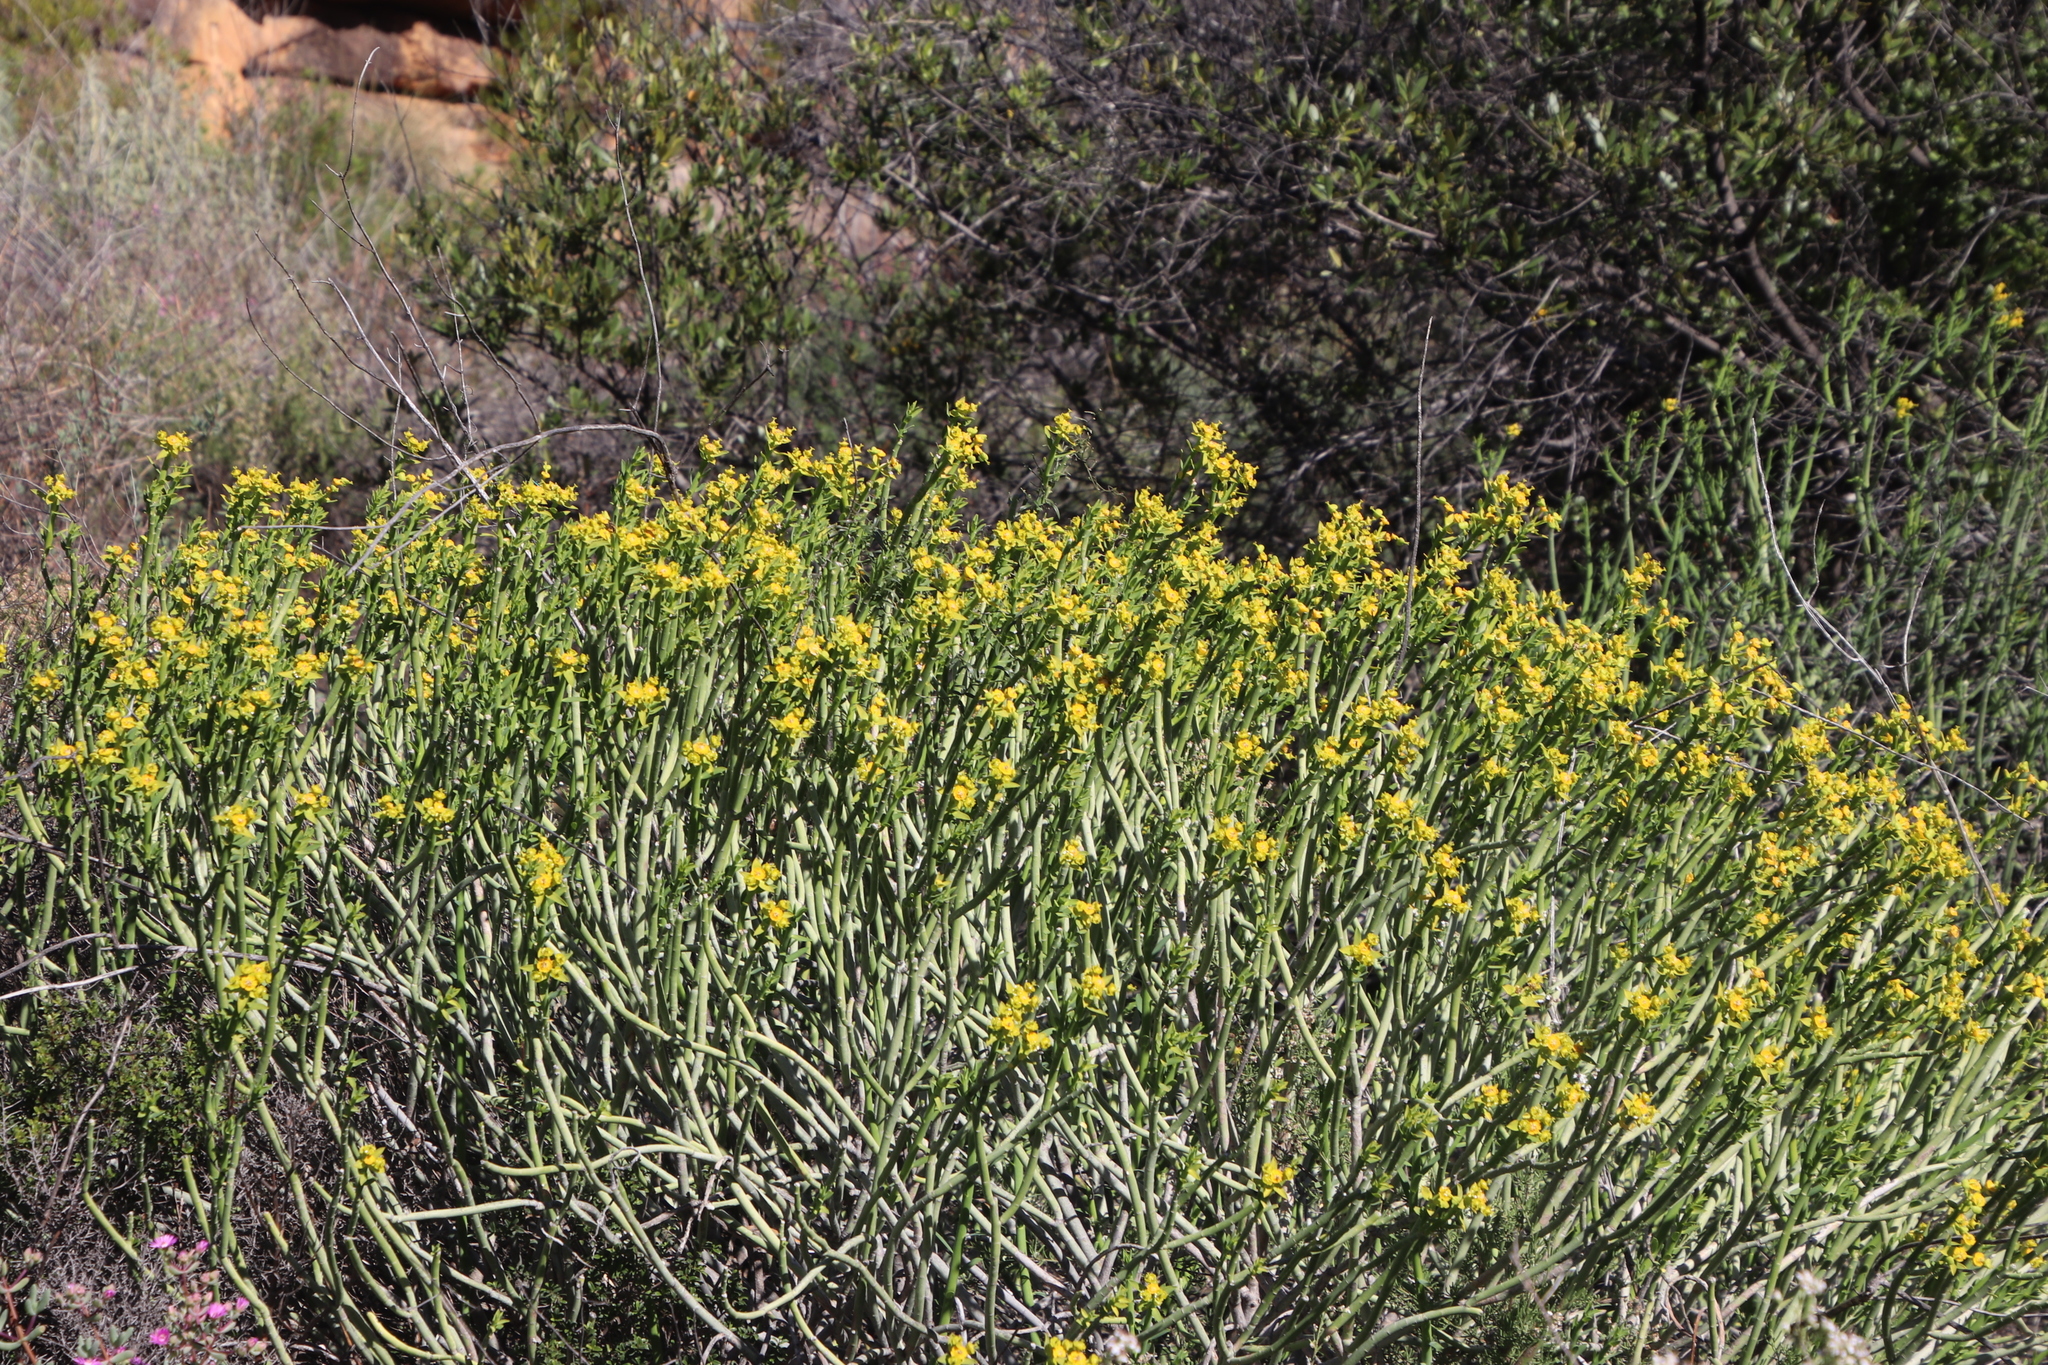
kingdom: Plantae
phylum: Tracheophyta
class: Magnoliopsida
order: Malpighiales
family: Euphorbiaceae
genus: Euphorbia
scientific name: Euphorbia mauritanica
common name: Jackal's-food
